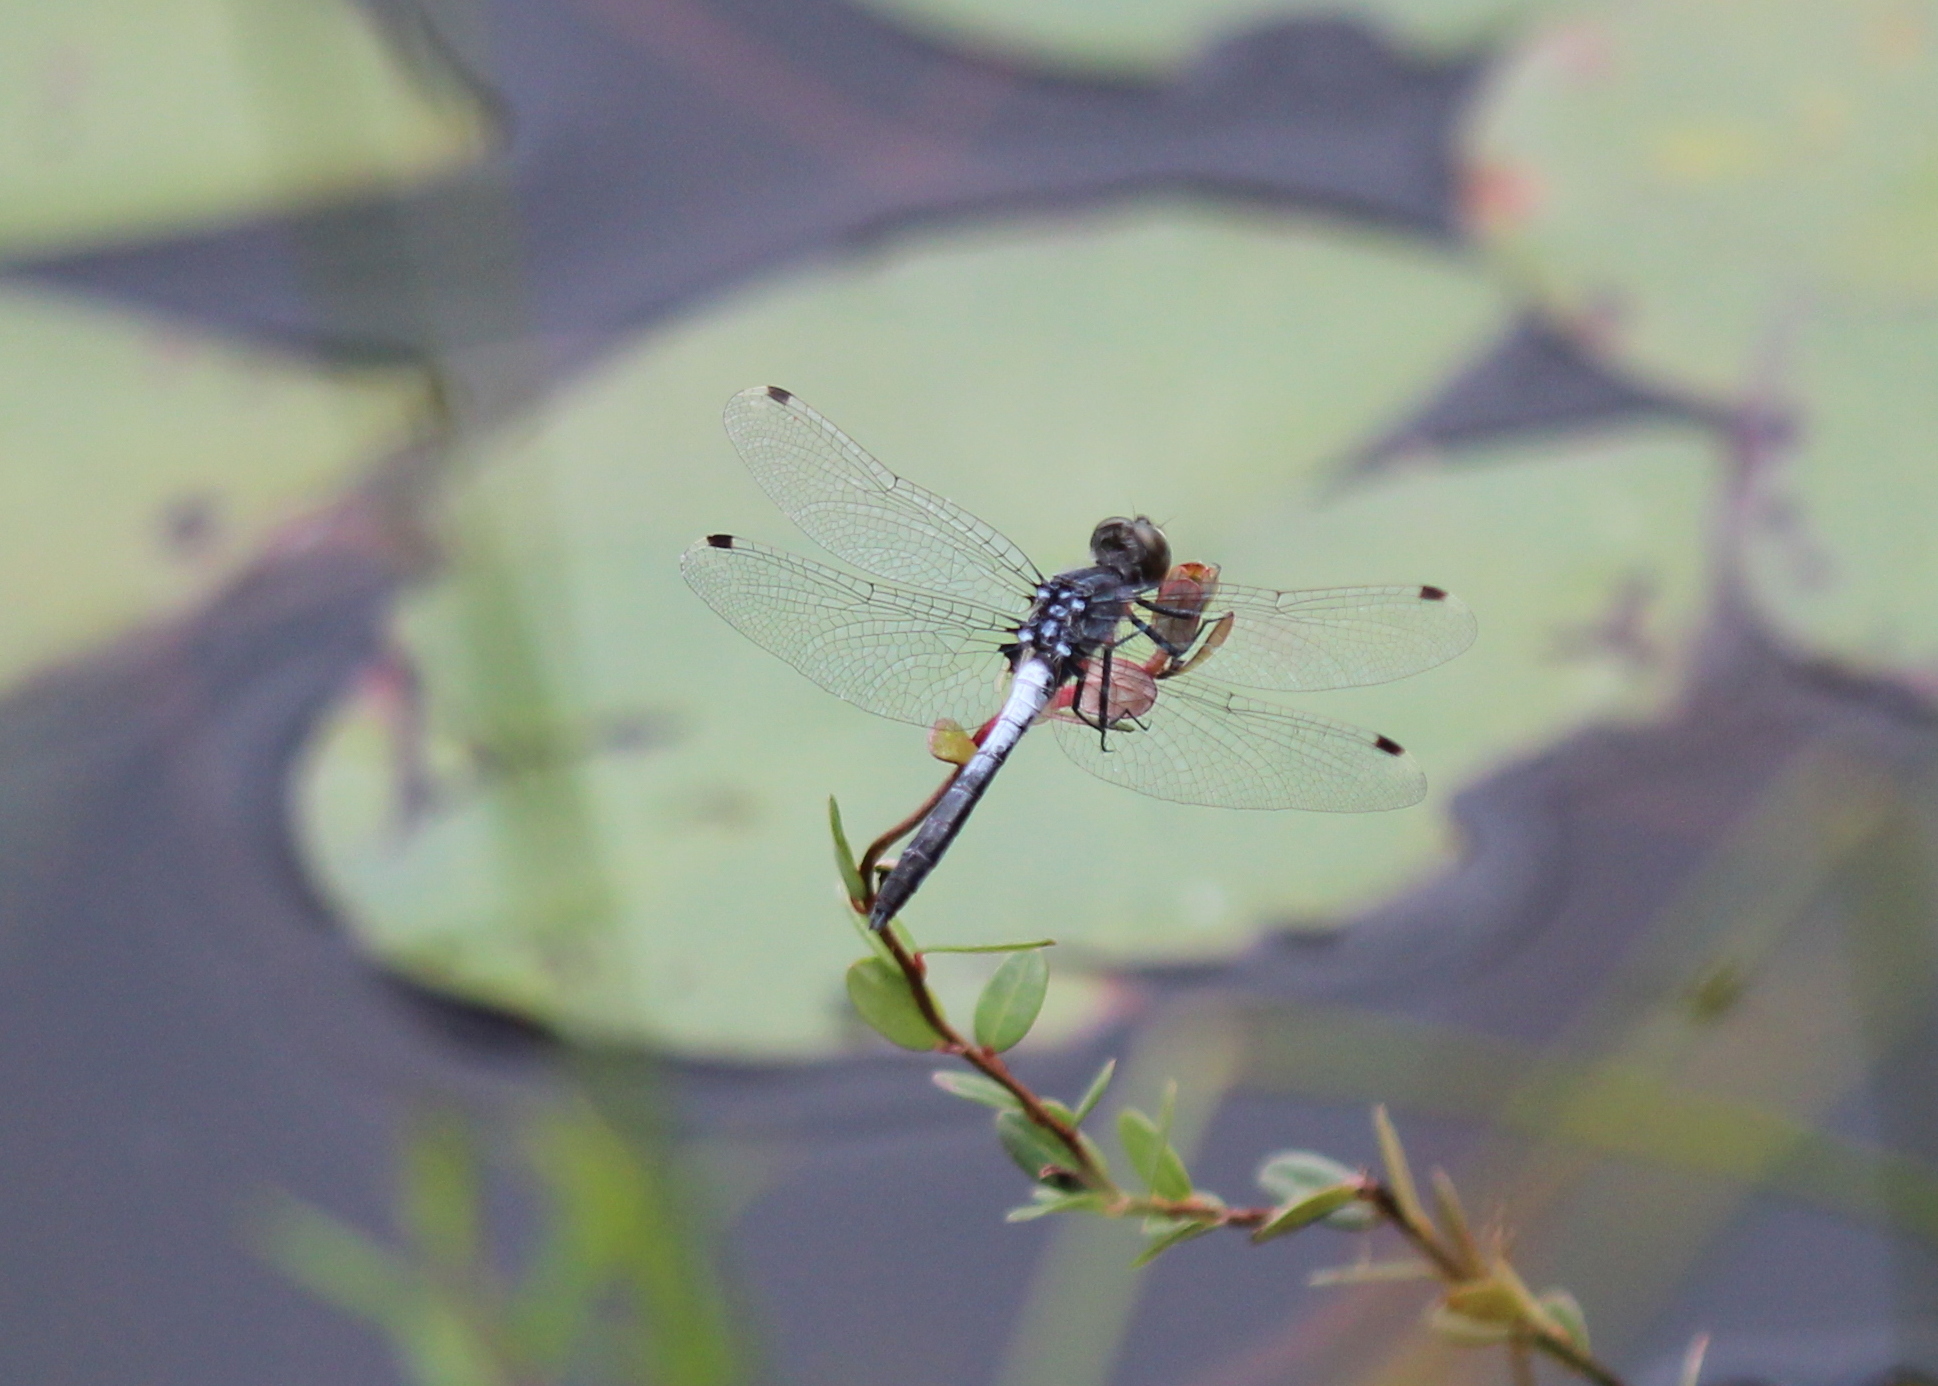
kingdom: Animalia
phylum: Arthropoda
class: Insecta
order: Odonata
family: Libellulidae
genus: Leucorrhinia
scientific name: Leucorrhinia frigida
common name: Frosted whiteface
